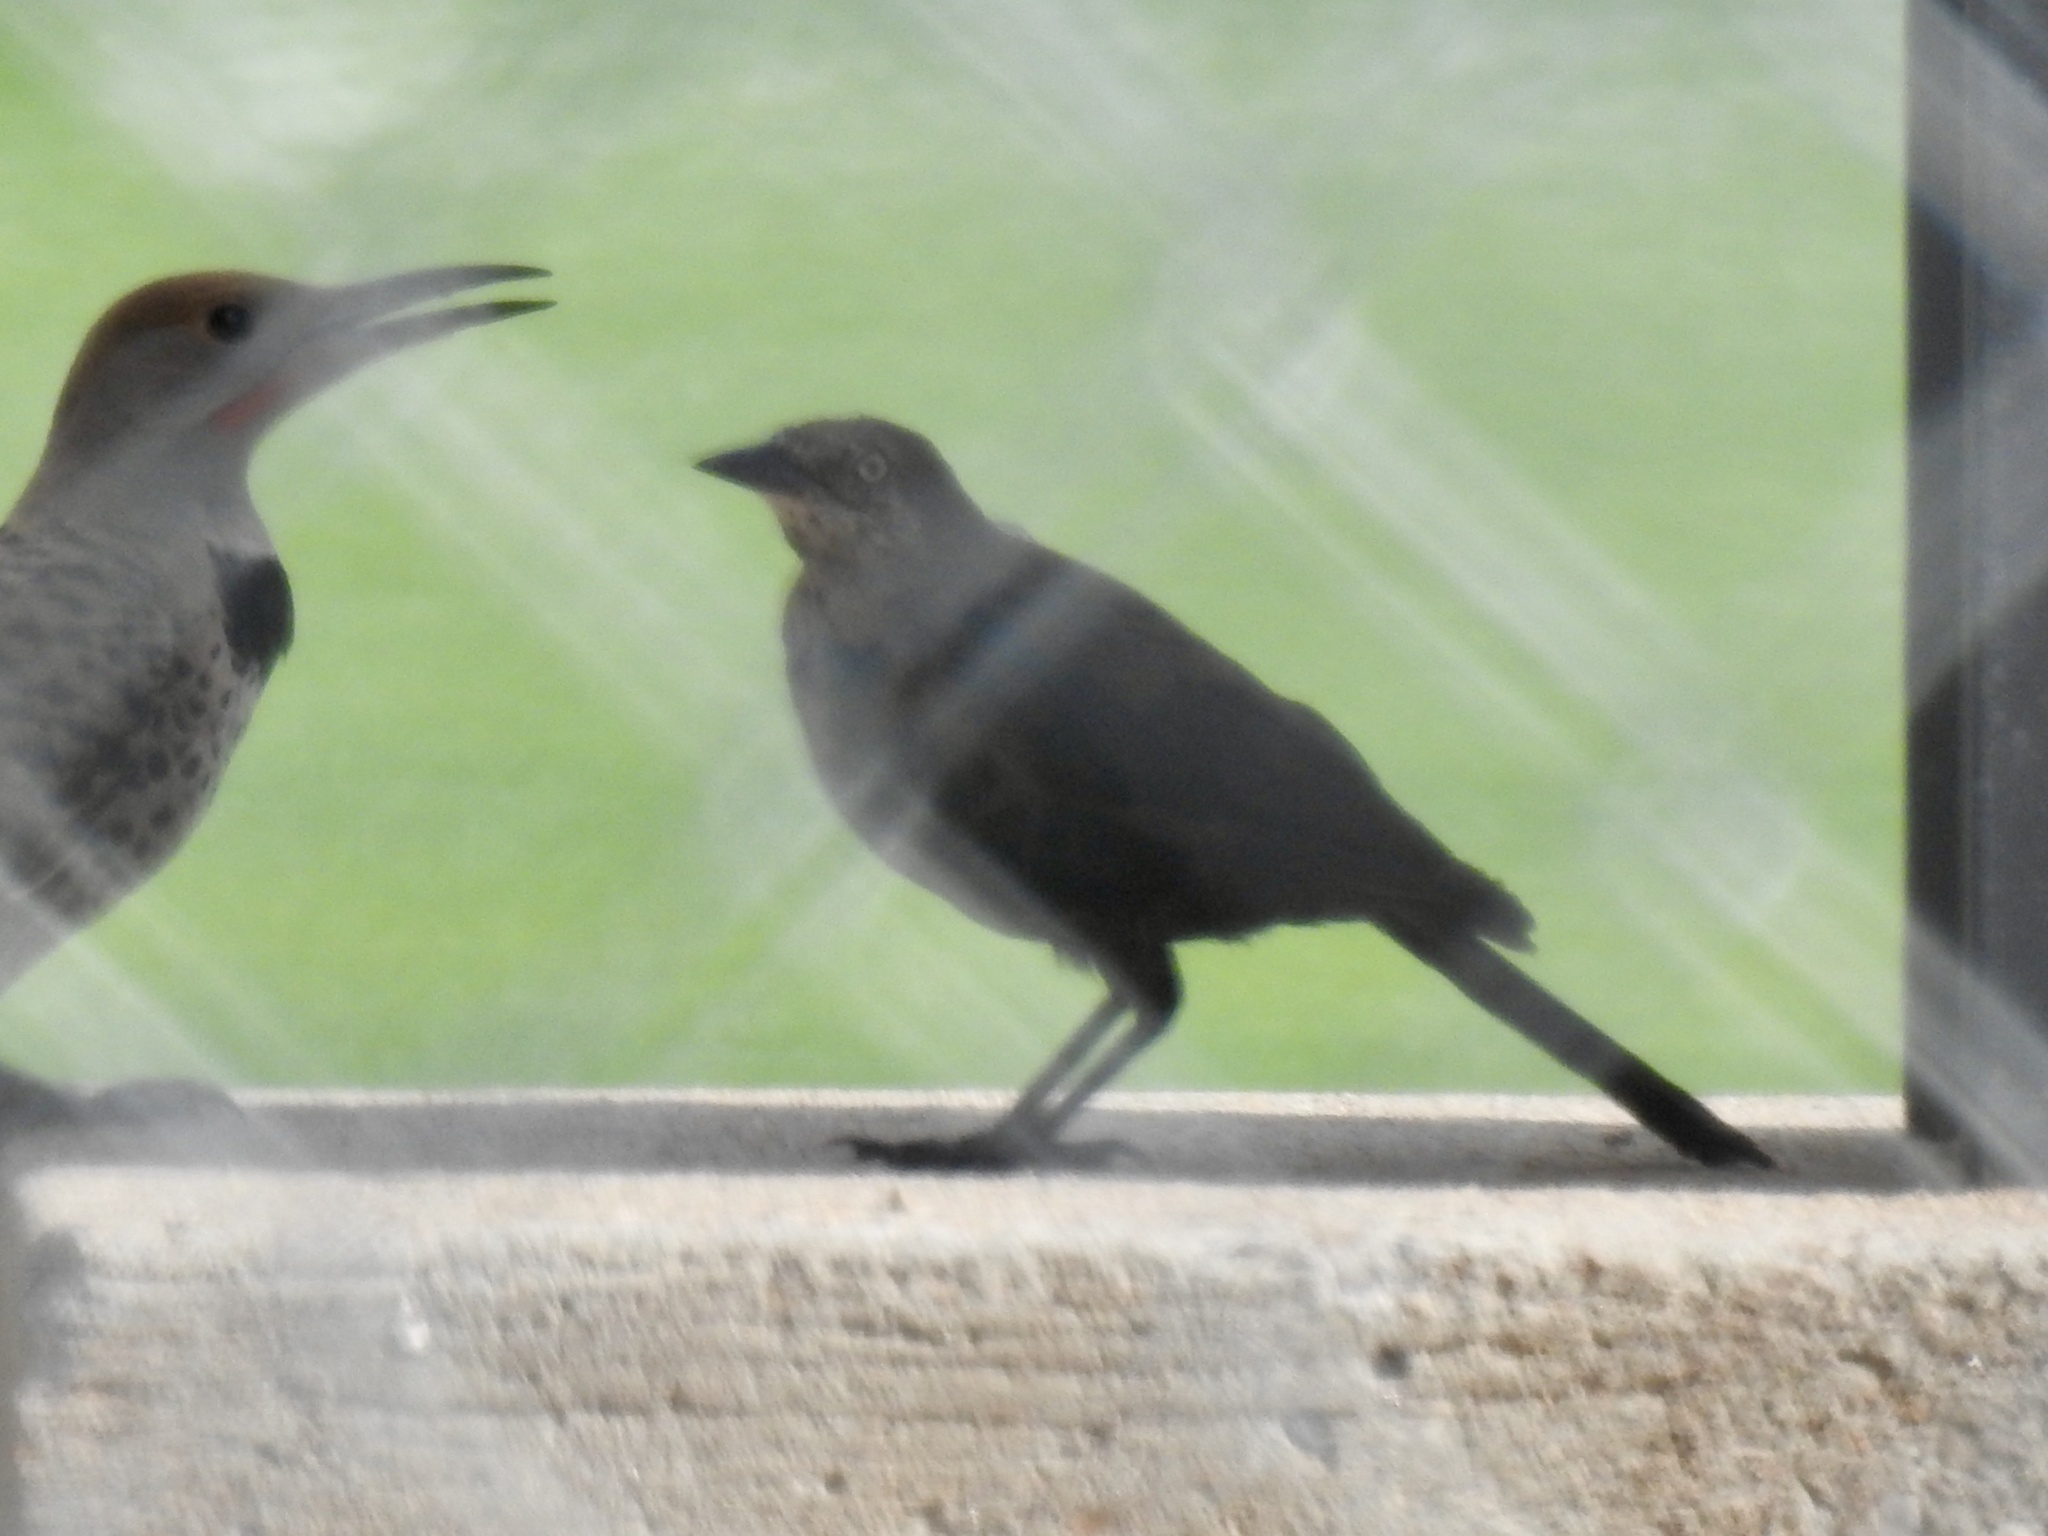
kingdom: Animalia
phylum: Chordata
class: Aves
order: Passeriformes
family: Icteridae
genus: Euphagus
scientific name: Euphagus cyanocephalus
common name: Brewer's blackbird
